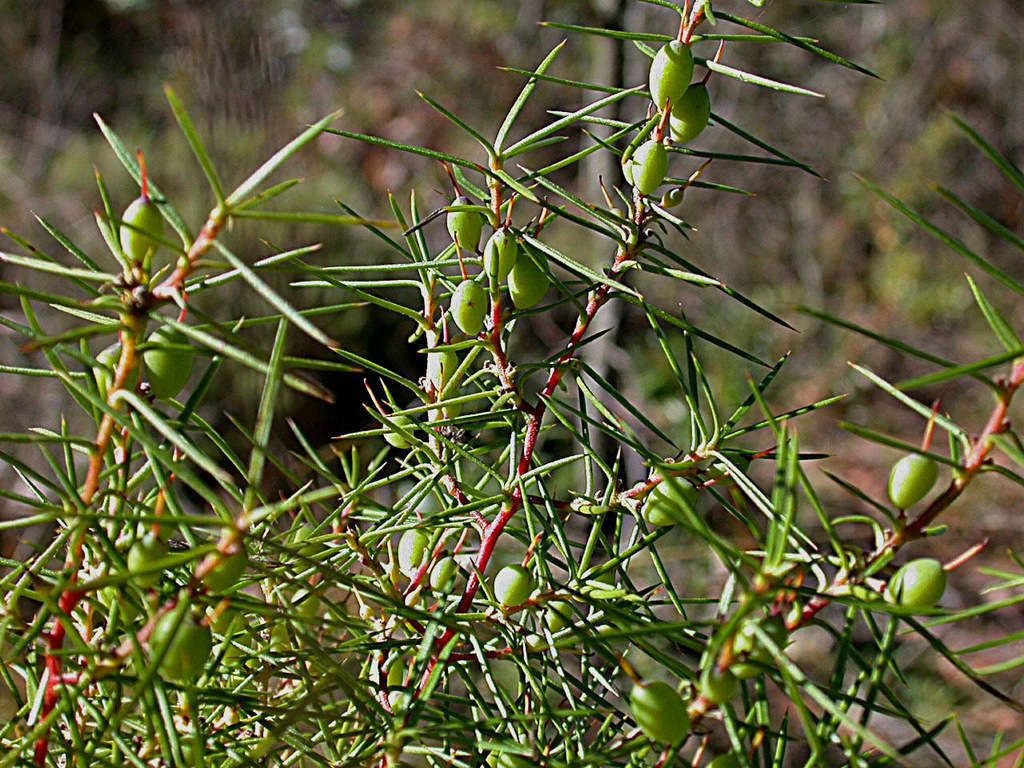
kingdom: Plantae
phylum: Tracheophyta
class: Magnoliopsida
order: Proteales
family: Proteaceae
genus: Persoonia
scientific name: Persoonia juniperina
